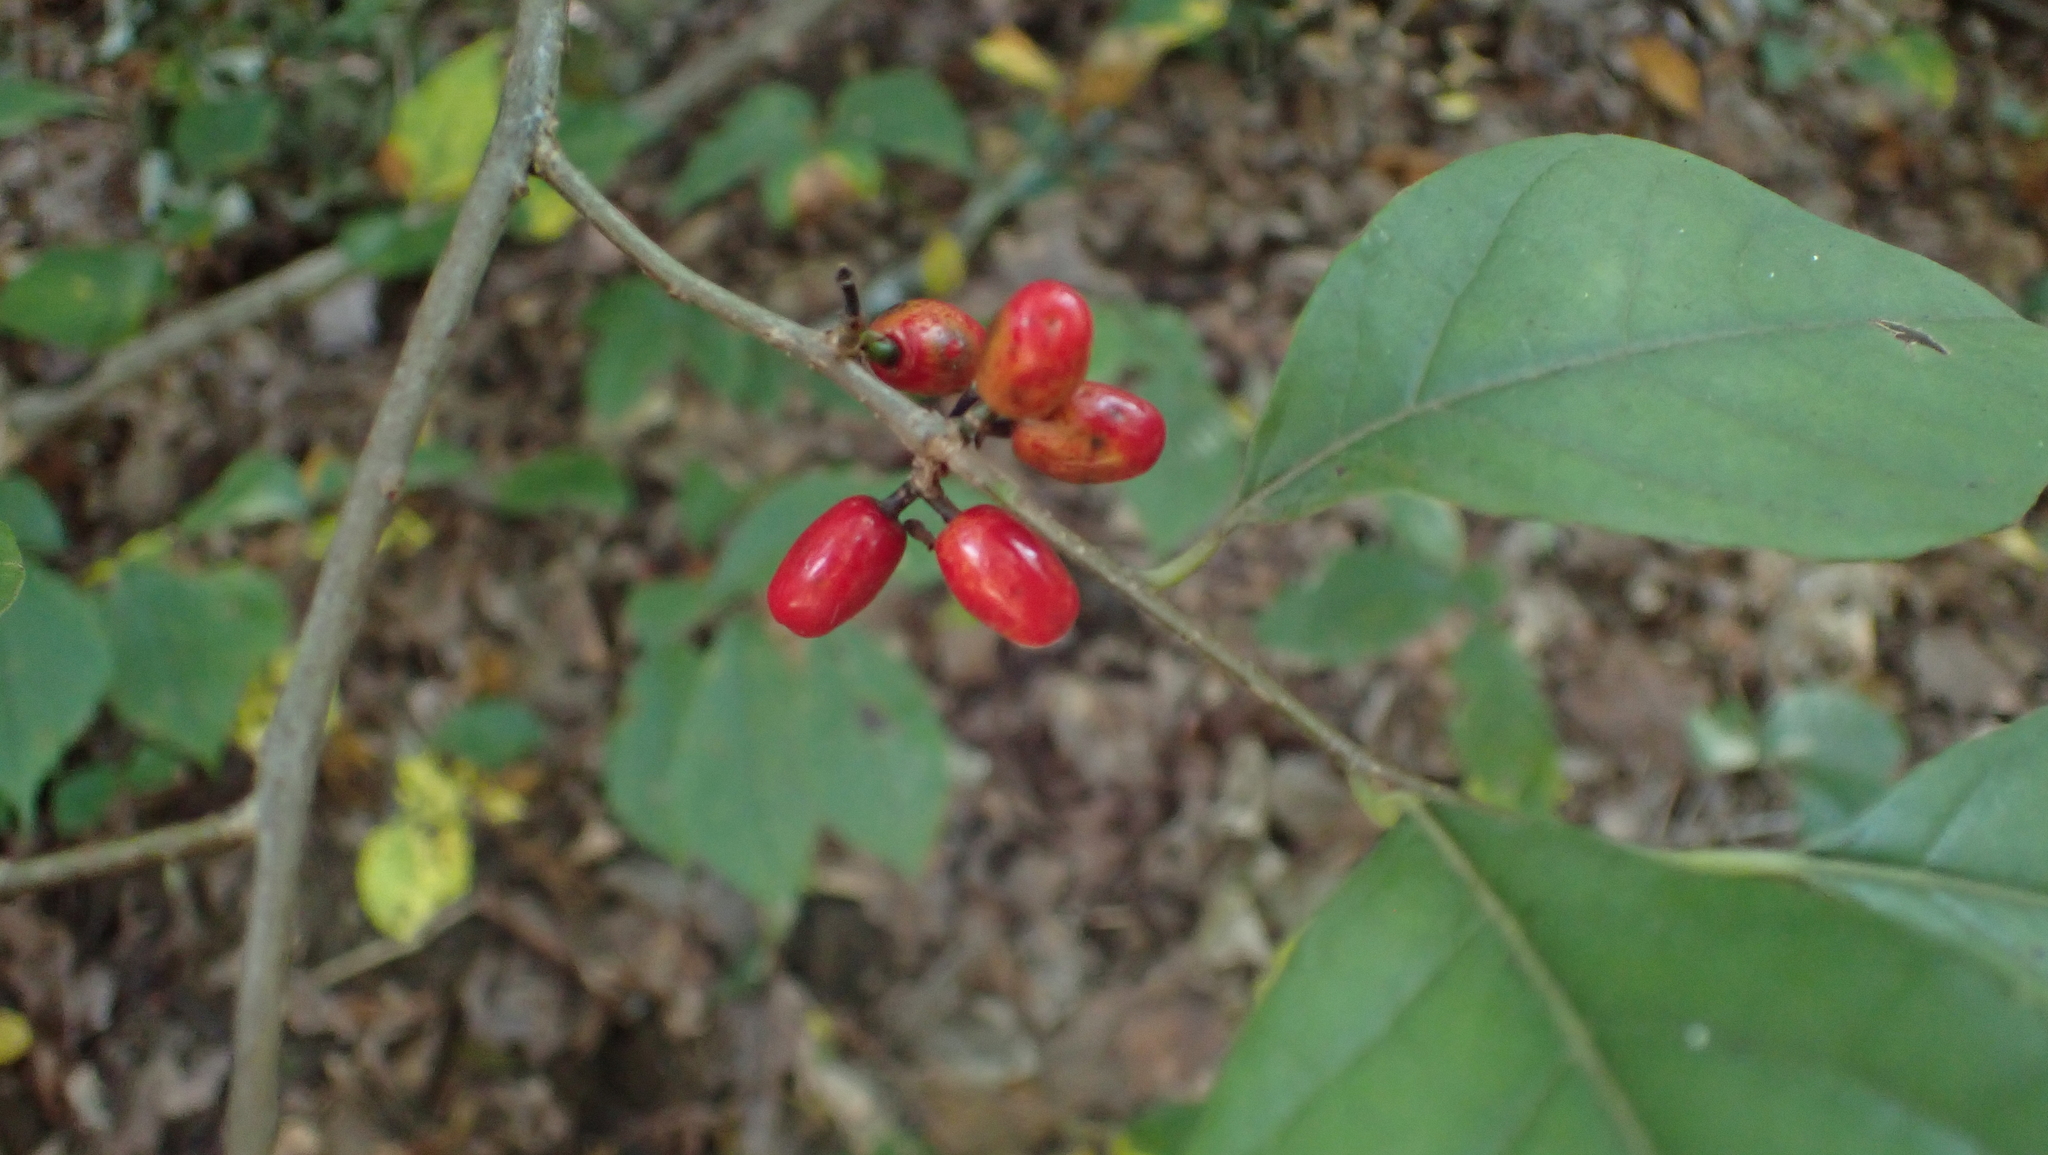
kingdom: Plantae
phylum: Tracheophyta
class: Magnoliopsida
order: Laurales
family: Lauraceae
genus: Lindera
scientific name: Lindera benzoin
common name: Spicebush
